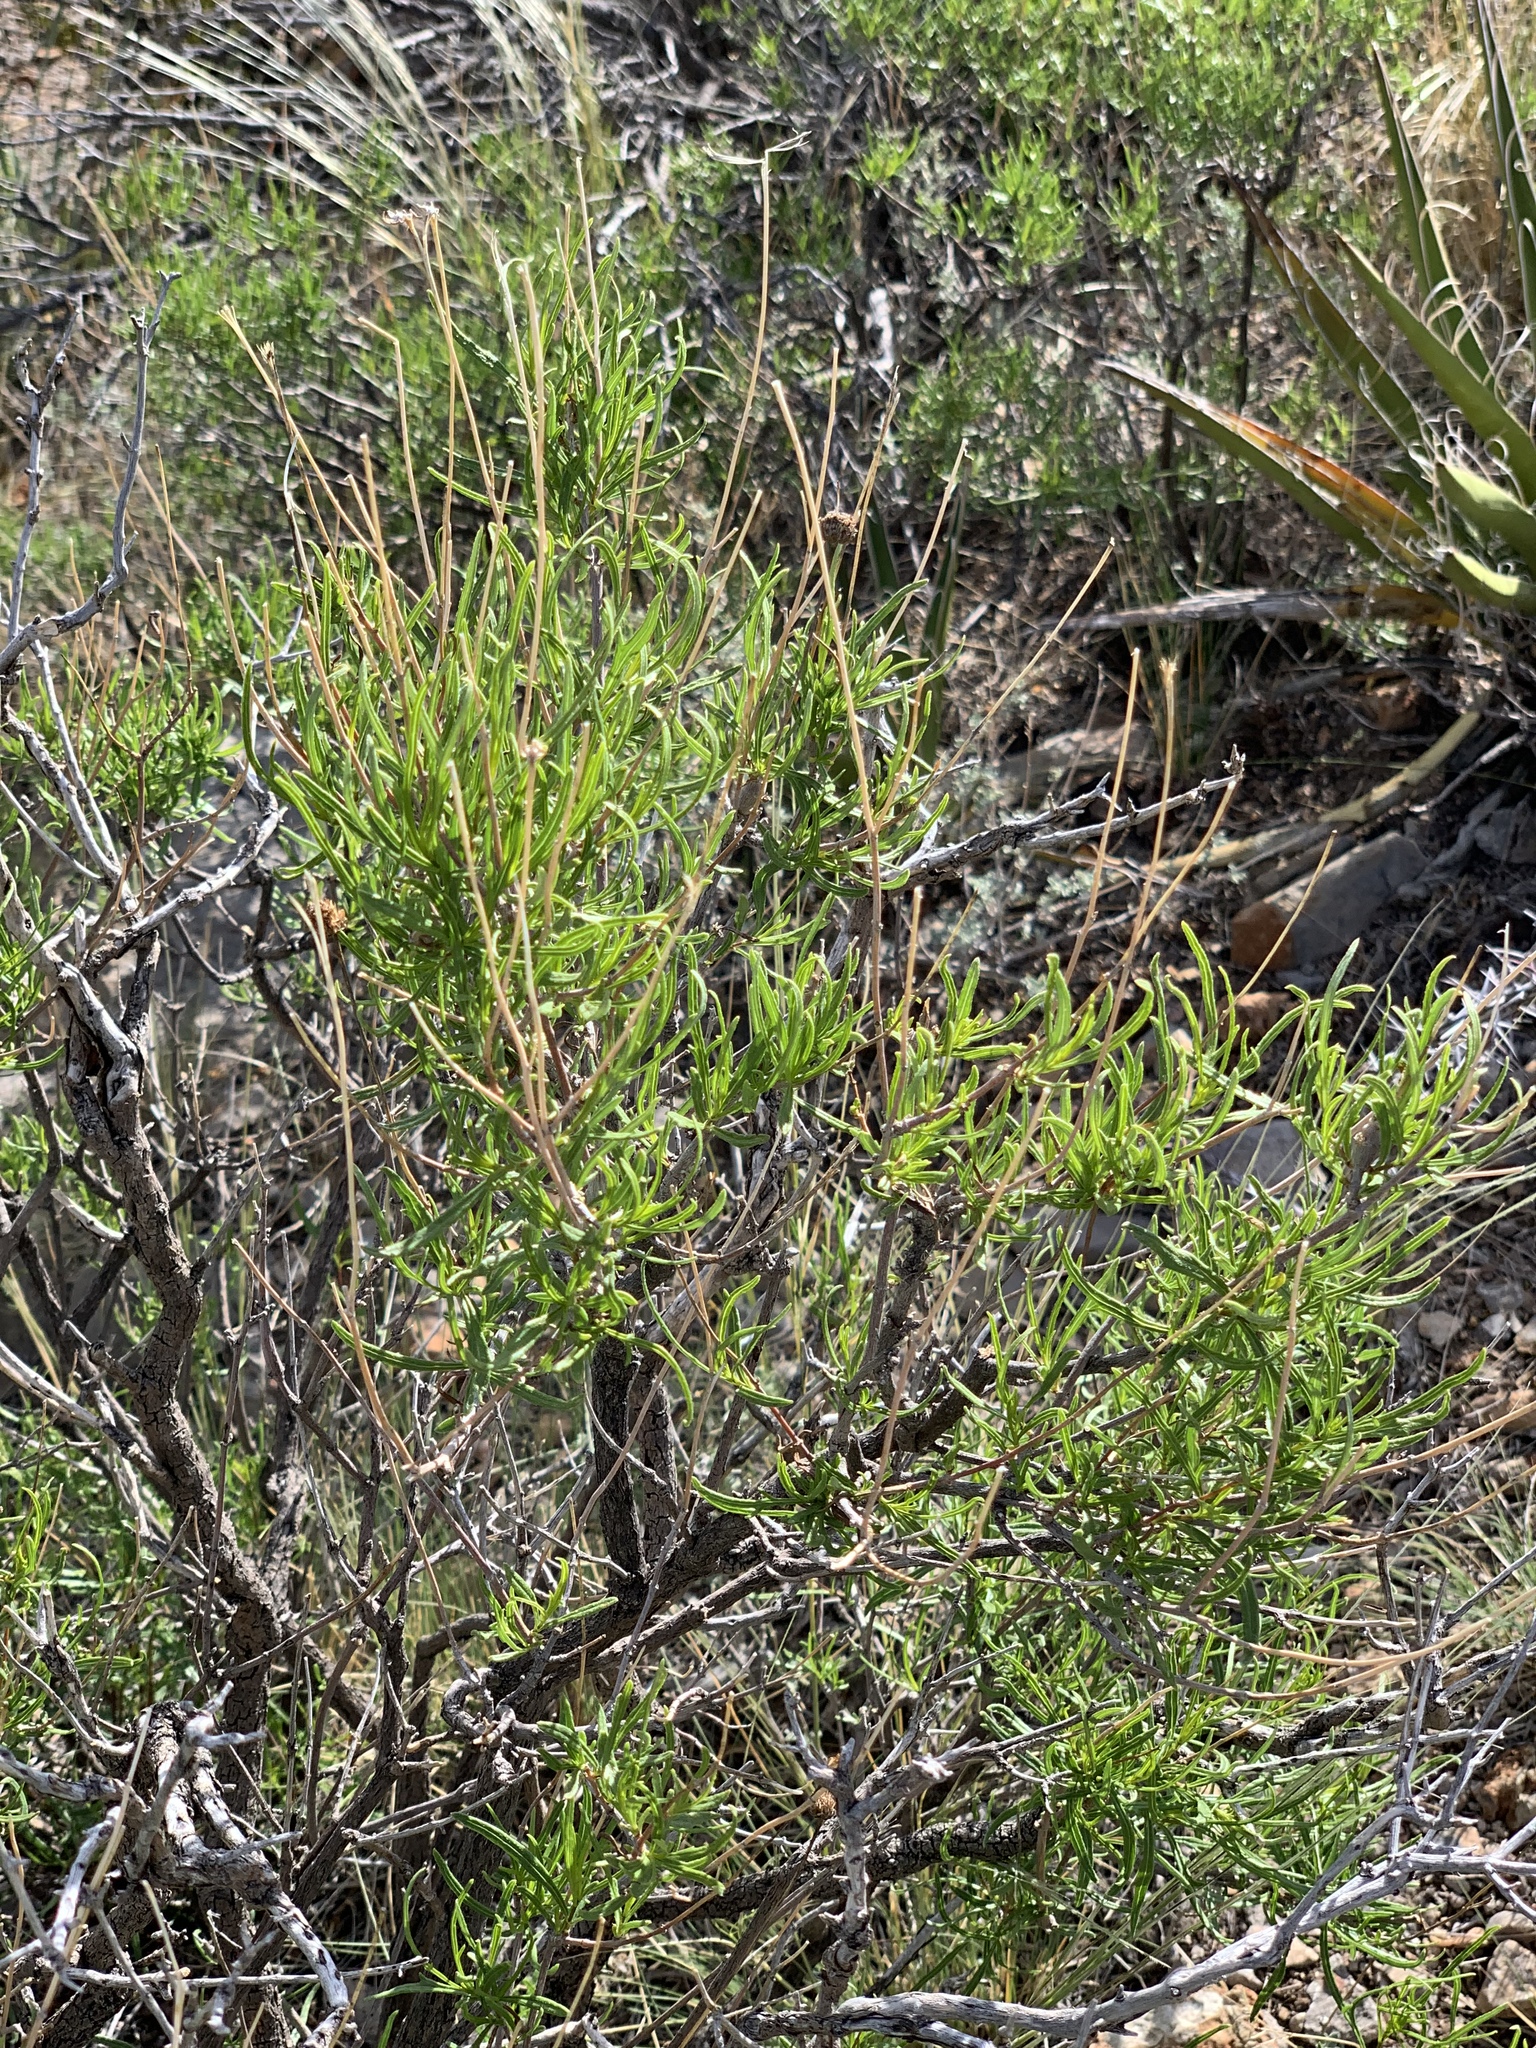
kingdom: Plantae
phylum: Tracheophyta
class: Magnoliopsida
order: Asterales
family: Asteraceae
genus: Sidneya
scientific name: Sidneya tenuifolia
